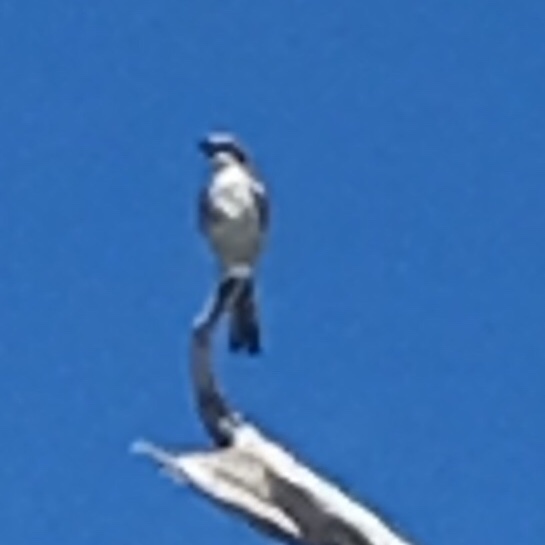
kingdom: Animalia
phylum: Chordata
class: Aves
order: Passeriformes
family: Laniidae
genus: Lanius
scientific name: Lanius ludovicianus
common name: Loggerhead shrike
